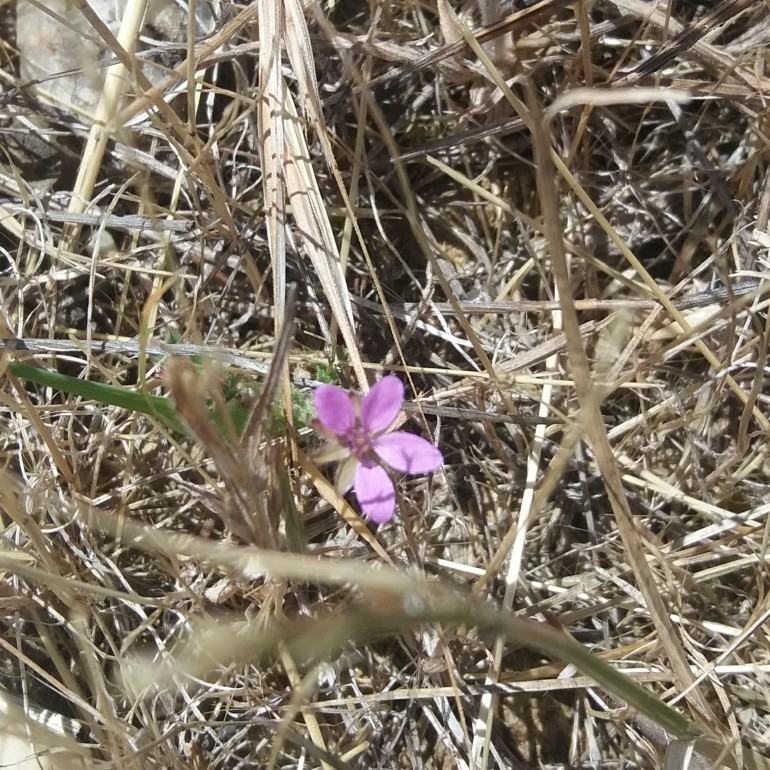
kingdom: Plantae
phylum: Tracheophyta
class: Magnoliopsida
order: Geraniales
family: Geraniaceae
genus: Erodium
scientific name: Erodium cicutarium
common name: Common stork's-bill
